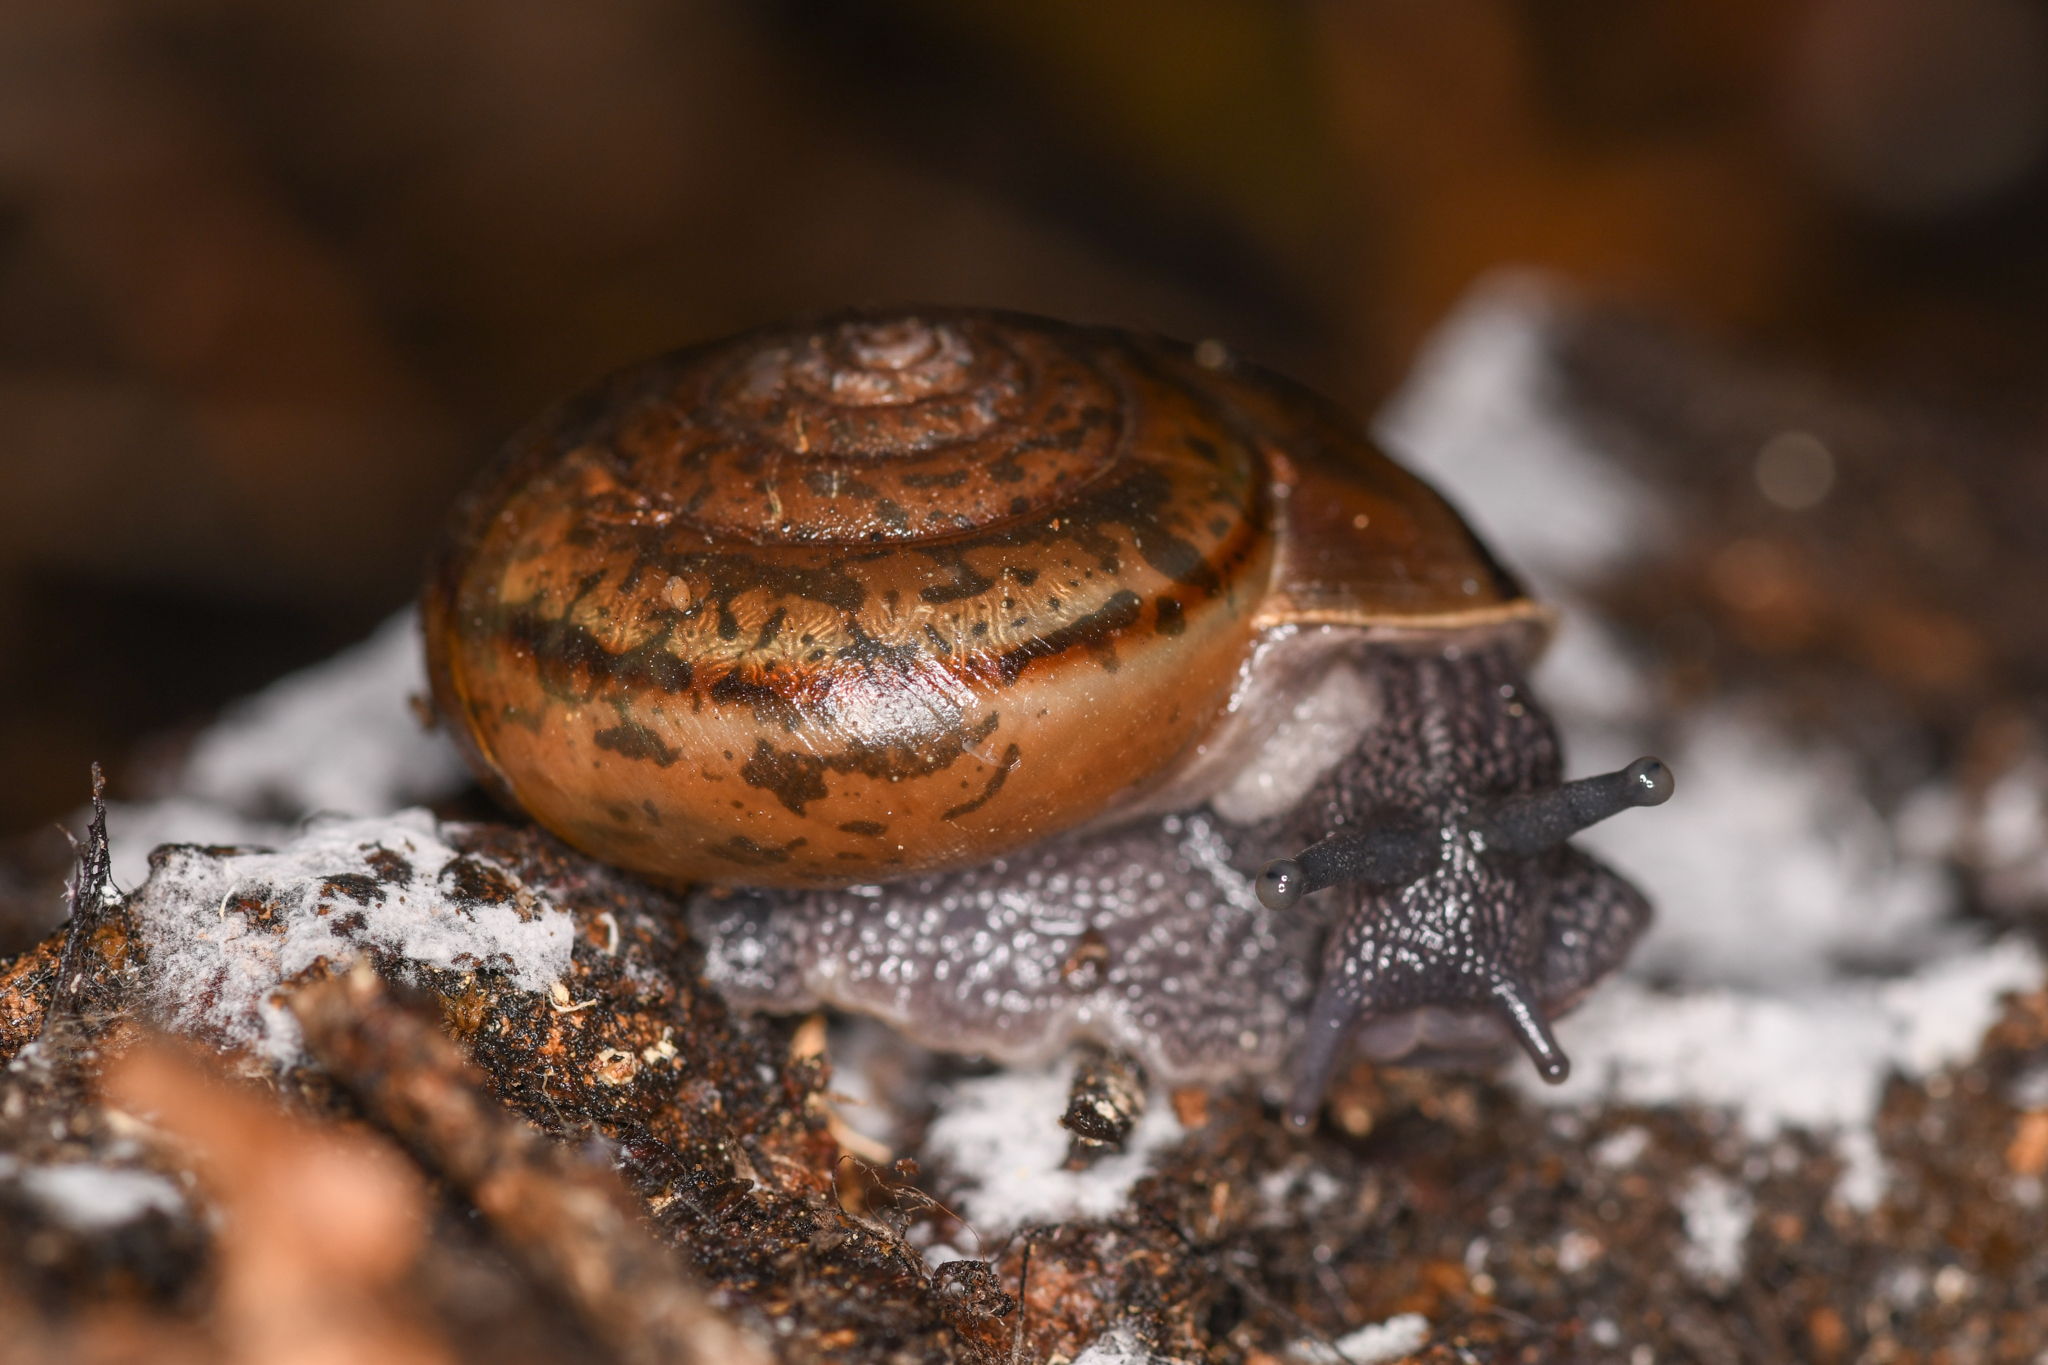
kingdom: Animalia
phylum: Mollusca
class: Gastropoda
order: Stylommatophora
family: Xanthonychidae
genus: Rothelix
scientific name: Rothelix lowei
